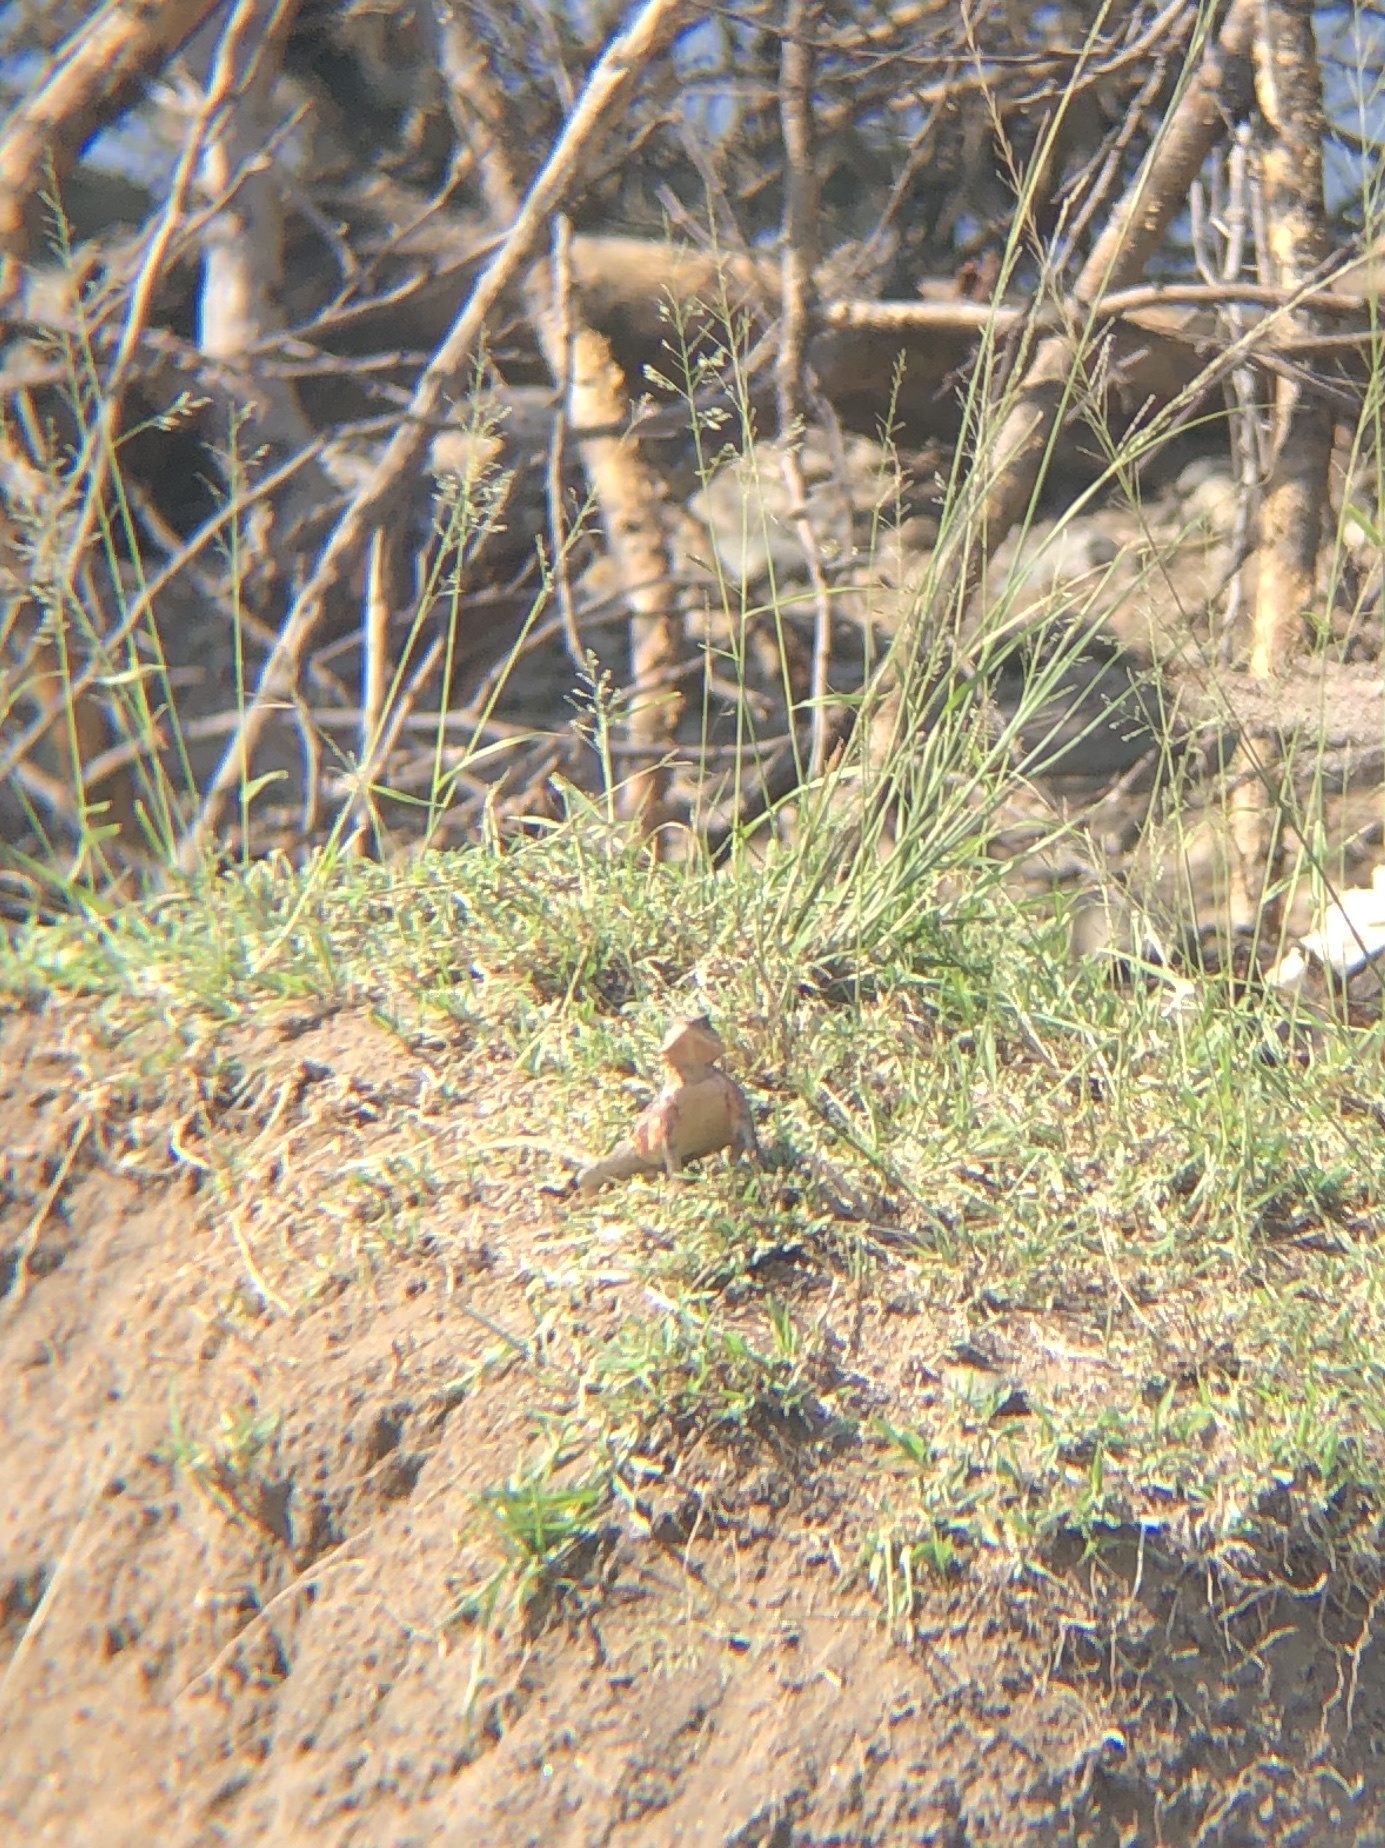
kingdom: Animalia
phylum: Chordata
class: Squamata
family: Agamidae
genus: Agama
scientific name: Agama mwanzae
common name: Mwanza flat-headed agama
